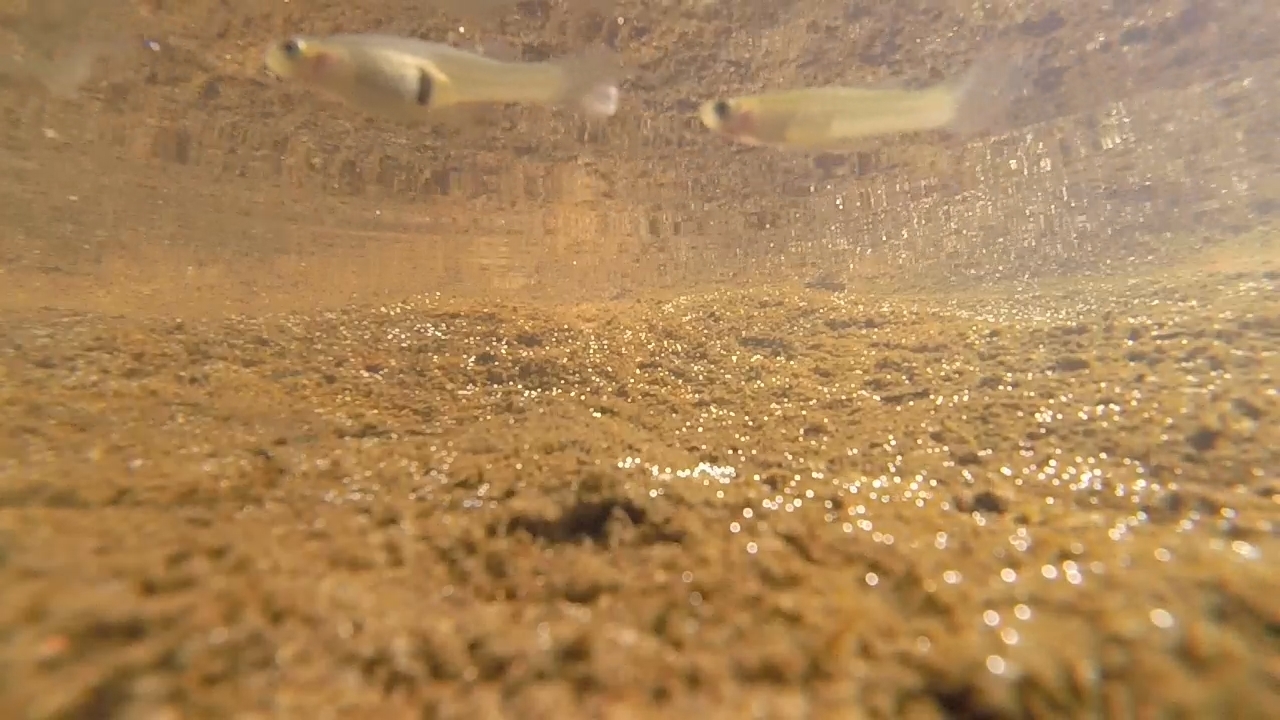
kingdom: Animalia
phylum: Chordata
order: Cyprinodontiformes
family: Poeciliidae
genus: Gambusia
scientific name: Gambusia
